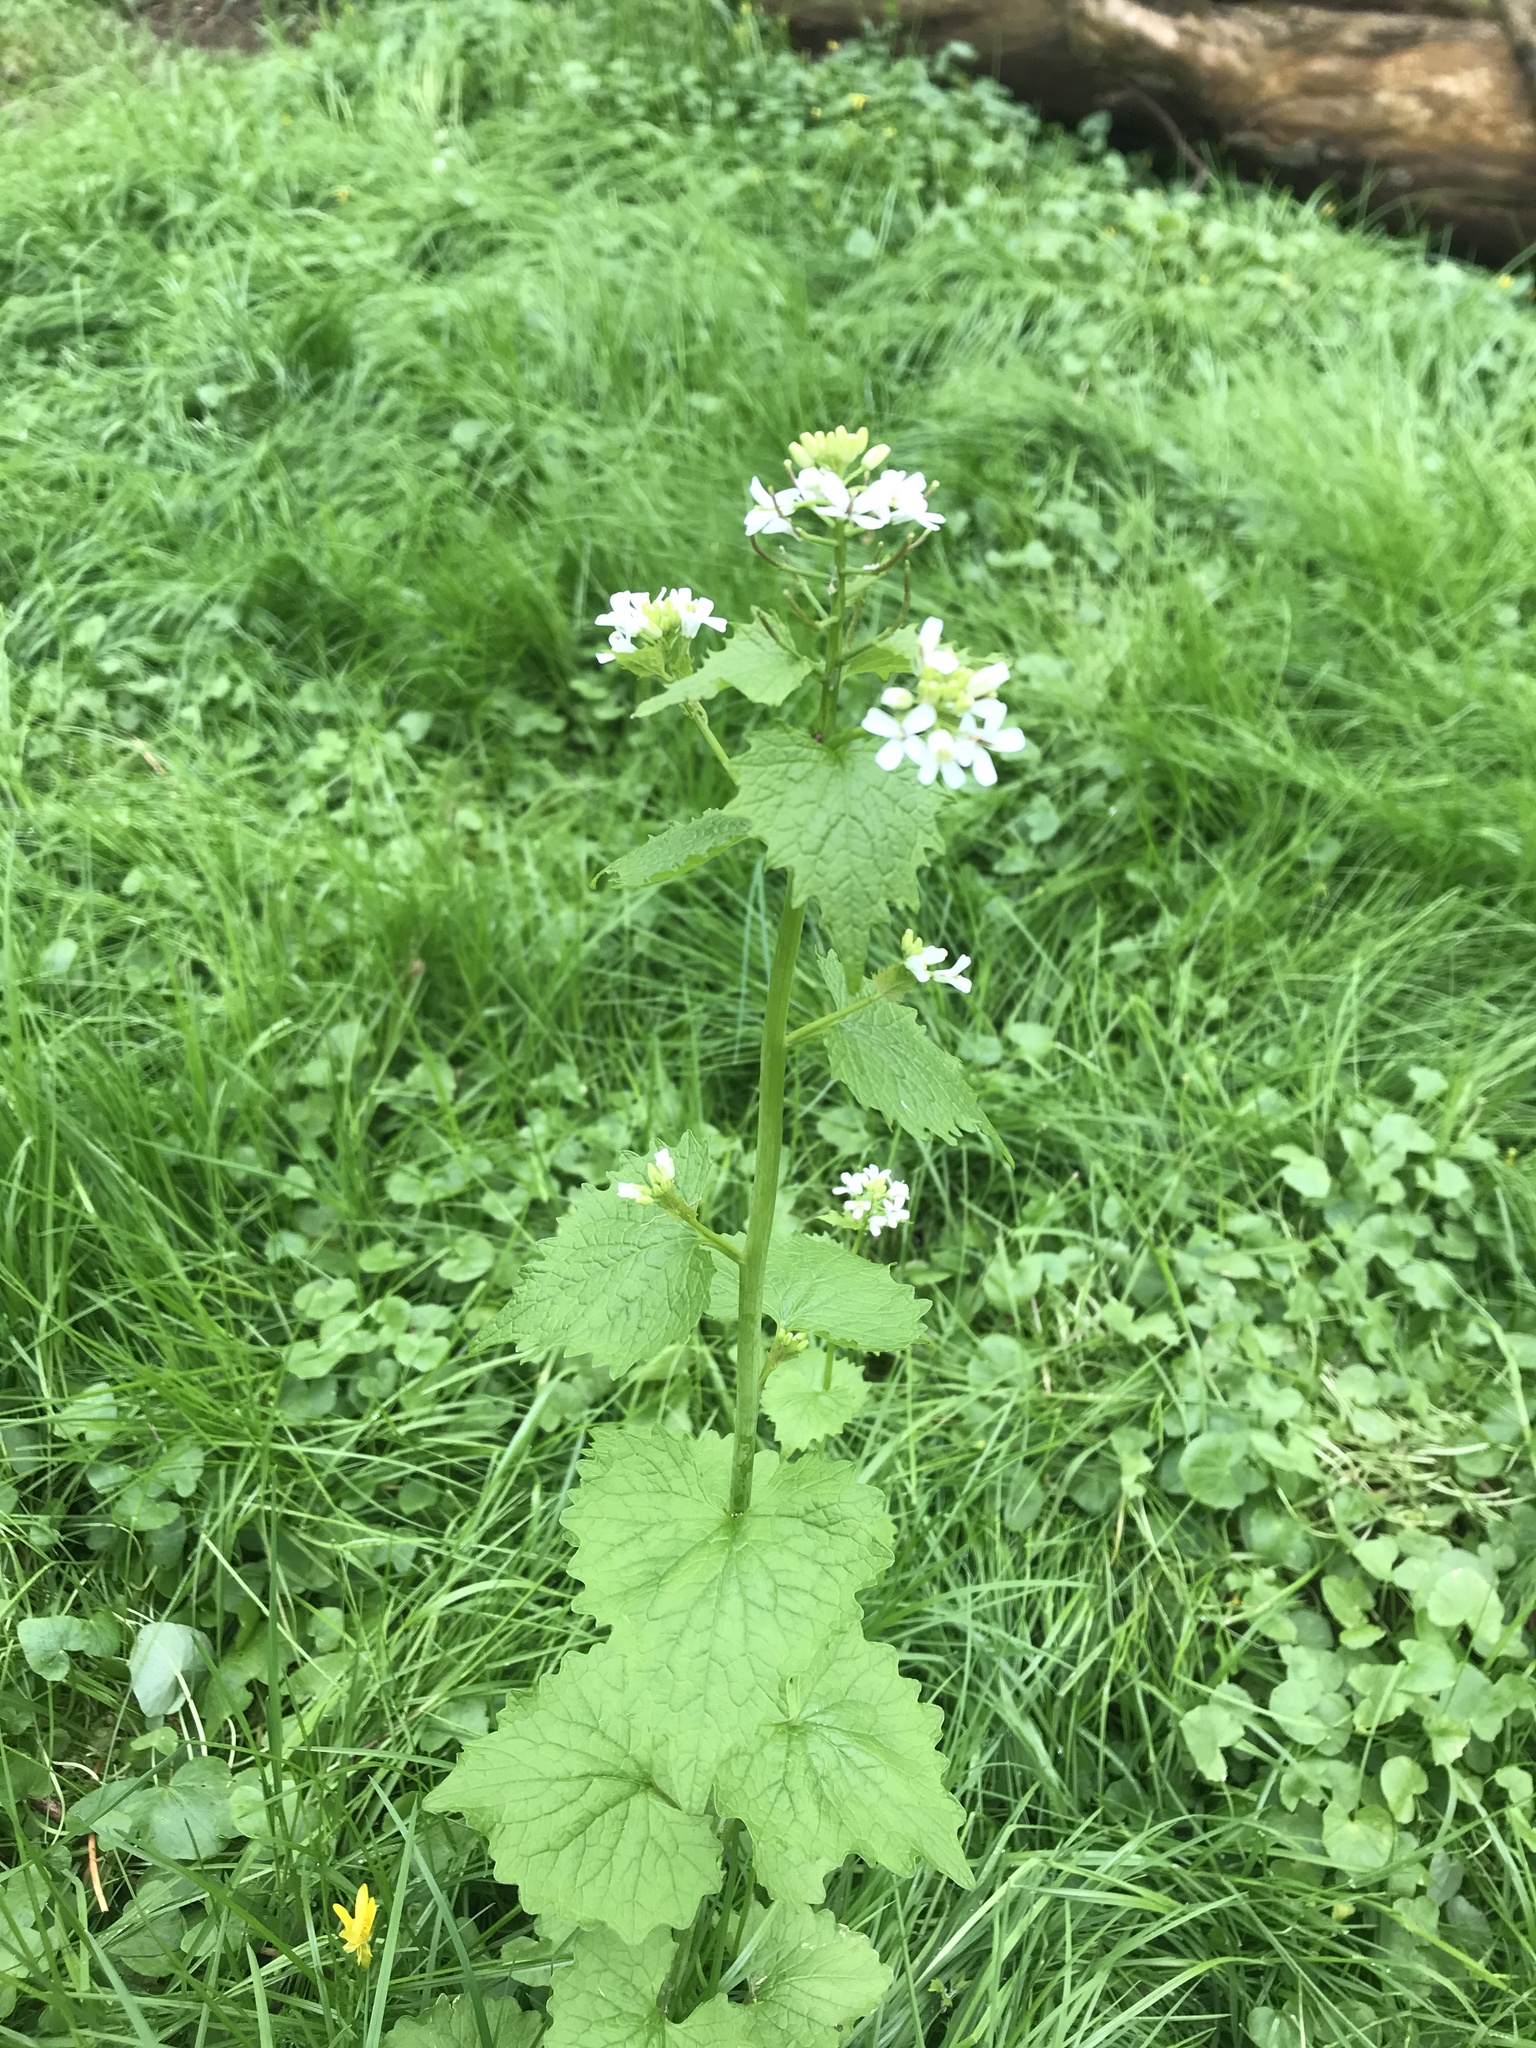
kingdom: Plantae
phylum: Tracheophyta
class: Magnoliopsida
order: Brassicales
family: Brassicaceae
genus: Alliaria
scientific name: Alliaria petiolata
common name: Garlic mustard
